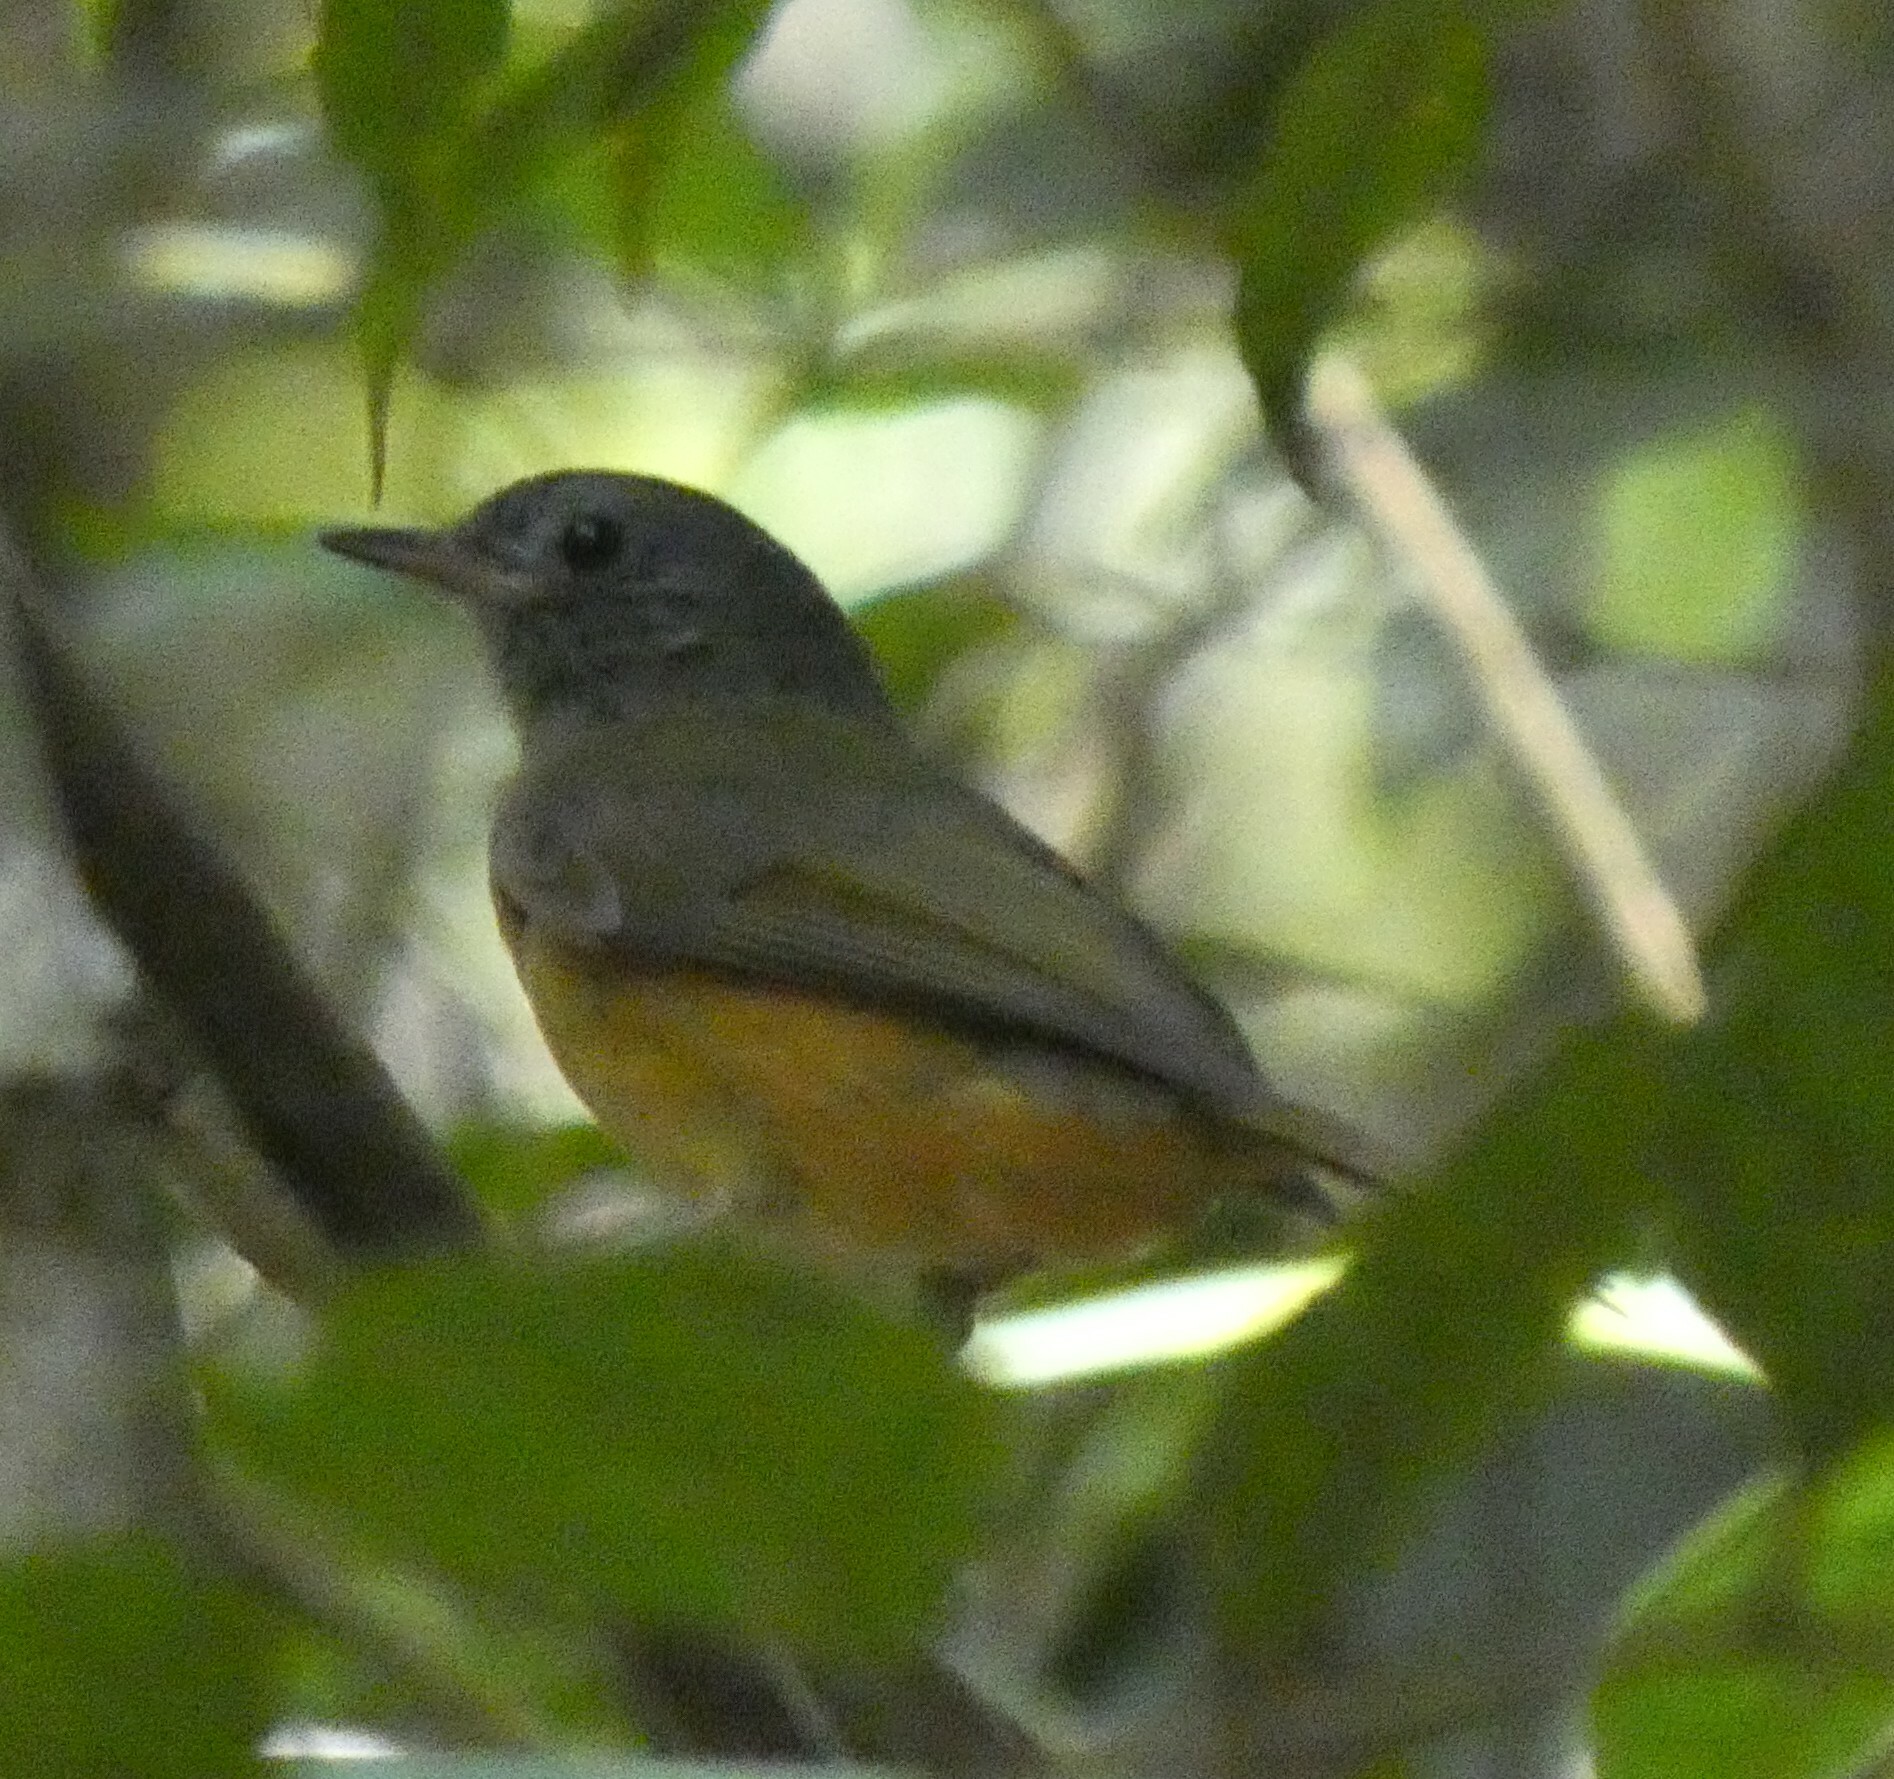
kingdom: Animalia
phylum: Chordata
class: Aves
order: Passeriformes
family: Tyrannidae
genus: Mionectes
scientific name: Mionectes rufiventris
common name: Grey-hooded flycatcher
